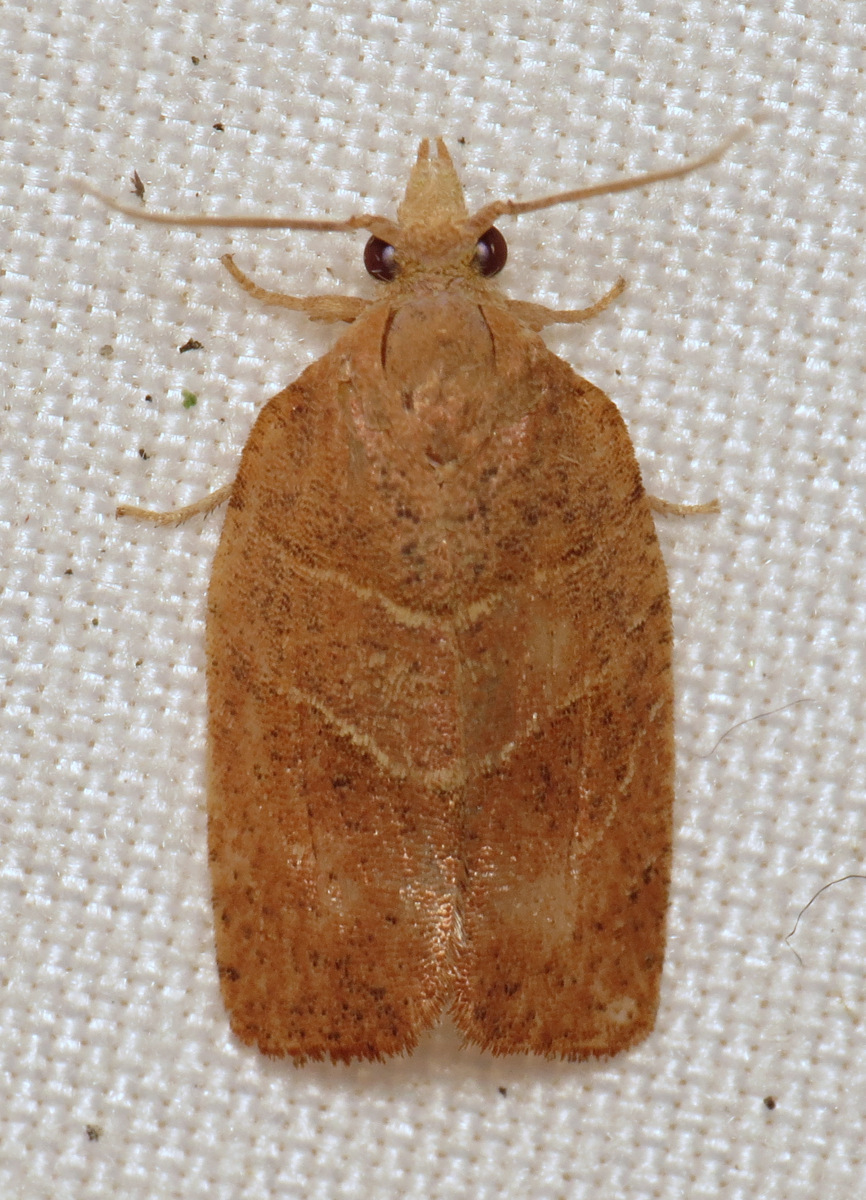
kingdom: Animalia
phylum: Arthropoda
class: Insecta
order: Lepidoptera
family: Tortricidae
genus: Pandemis
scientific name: Pandemis limitata
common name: Three-lined leafroller moth
